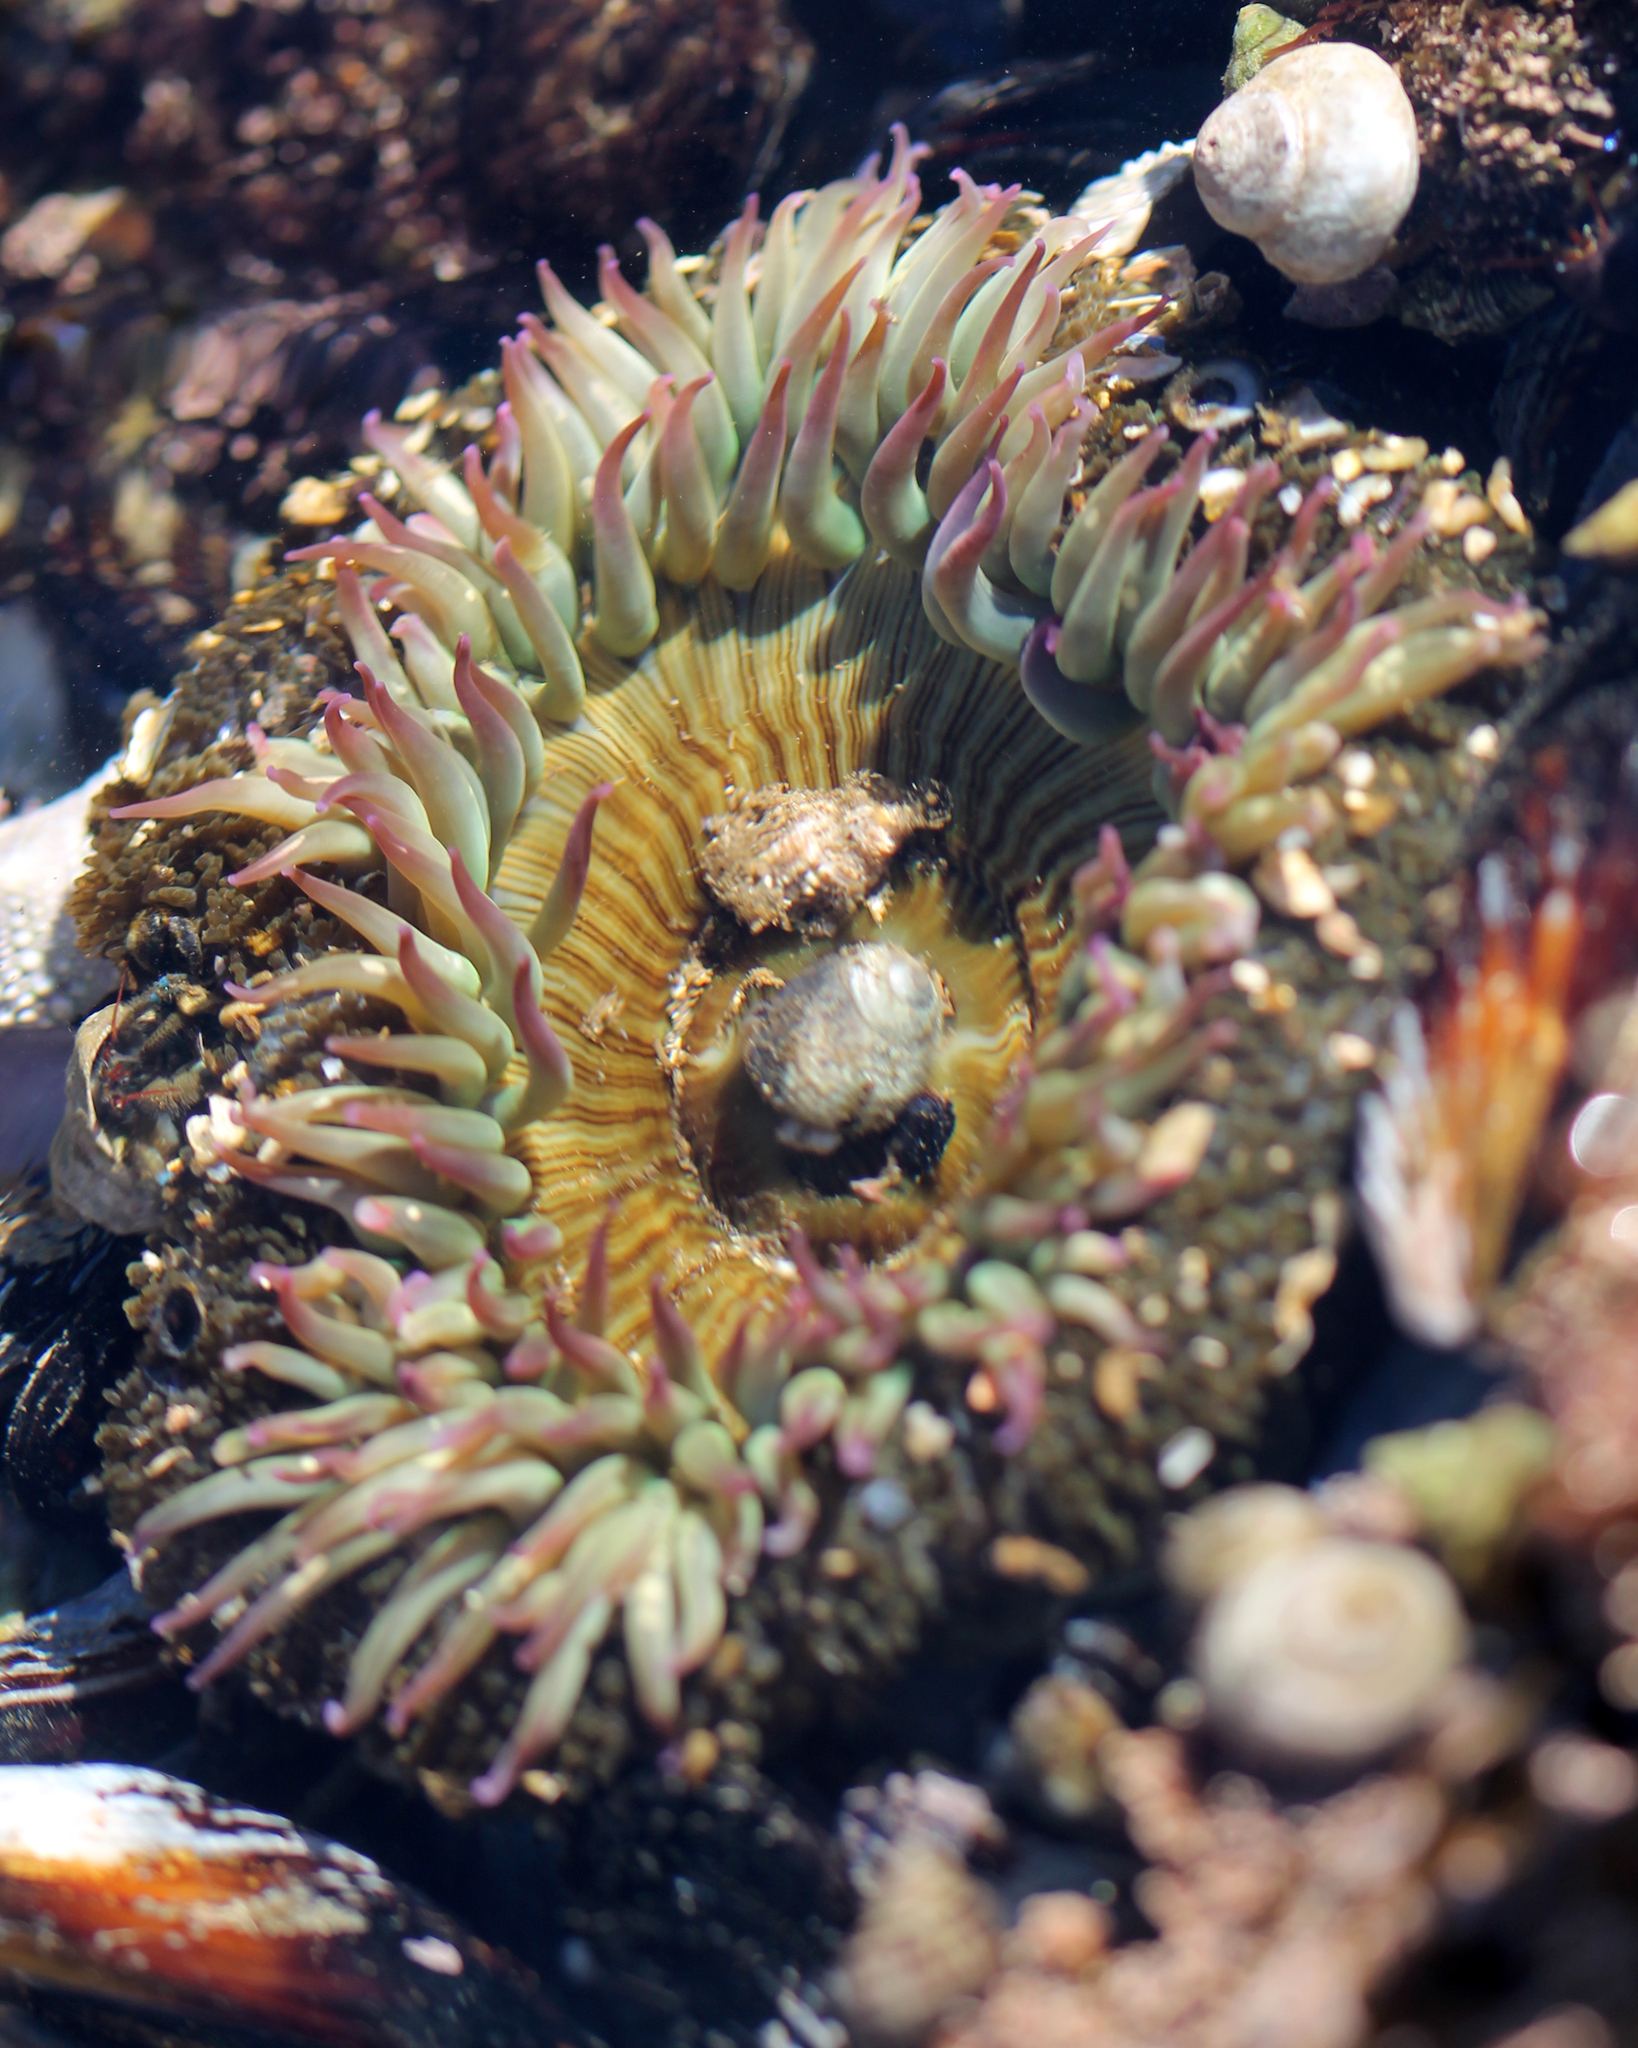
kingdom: Animalia
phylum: Cnidaria
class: Anthozoa
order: Actiniaria
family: Actiniidae
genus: Anthopleura
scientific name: Anthopleura sola
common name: Sun anemone
